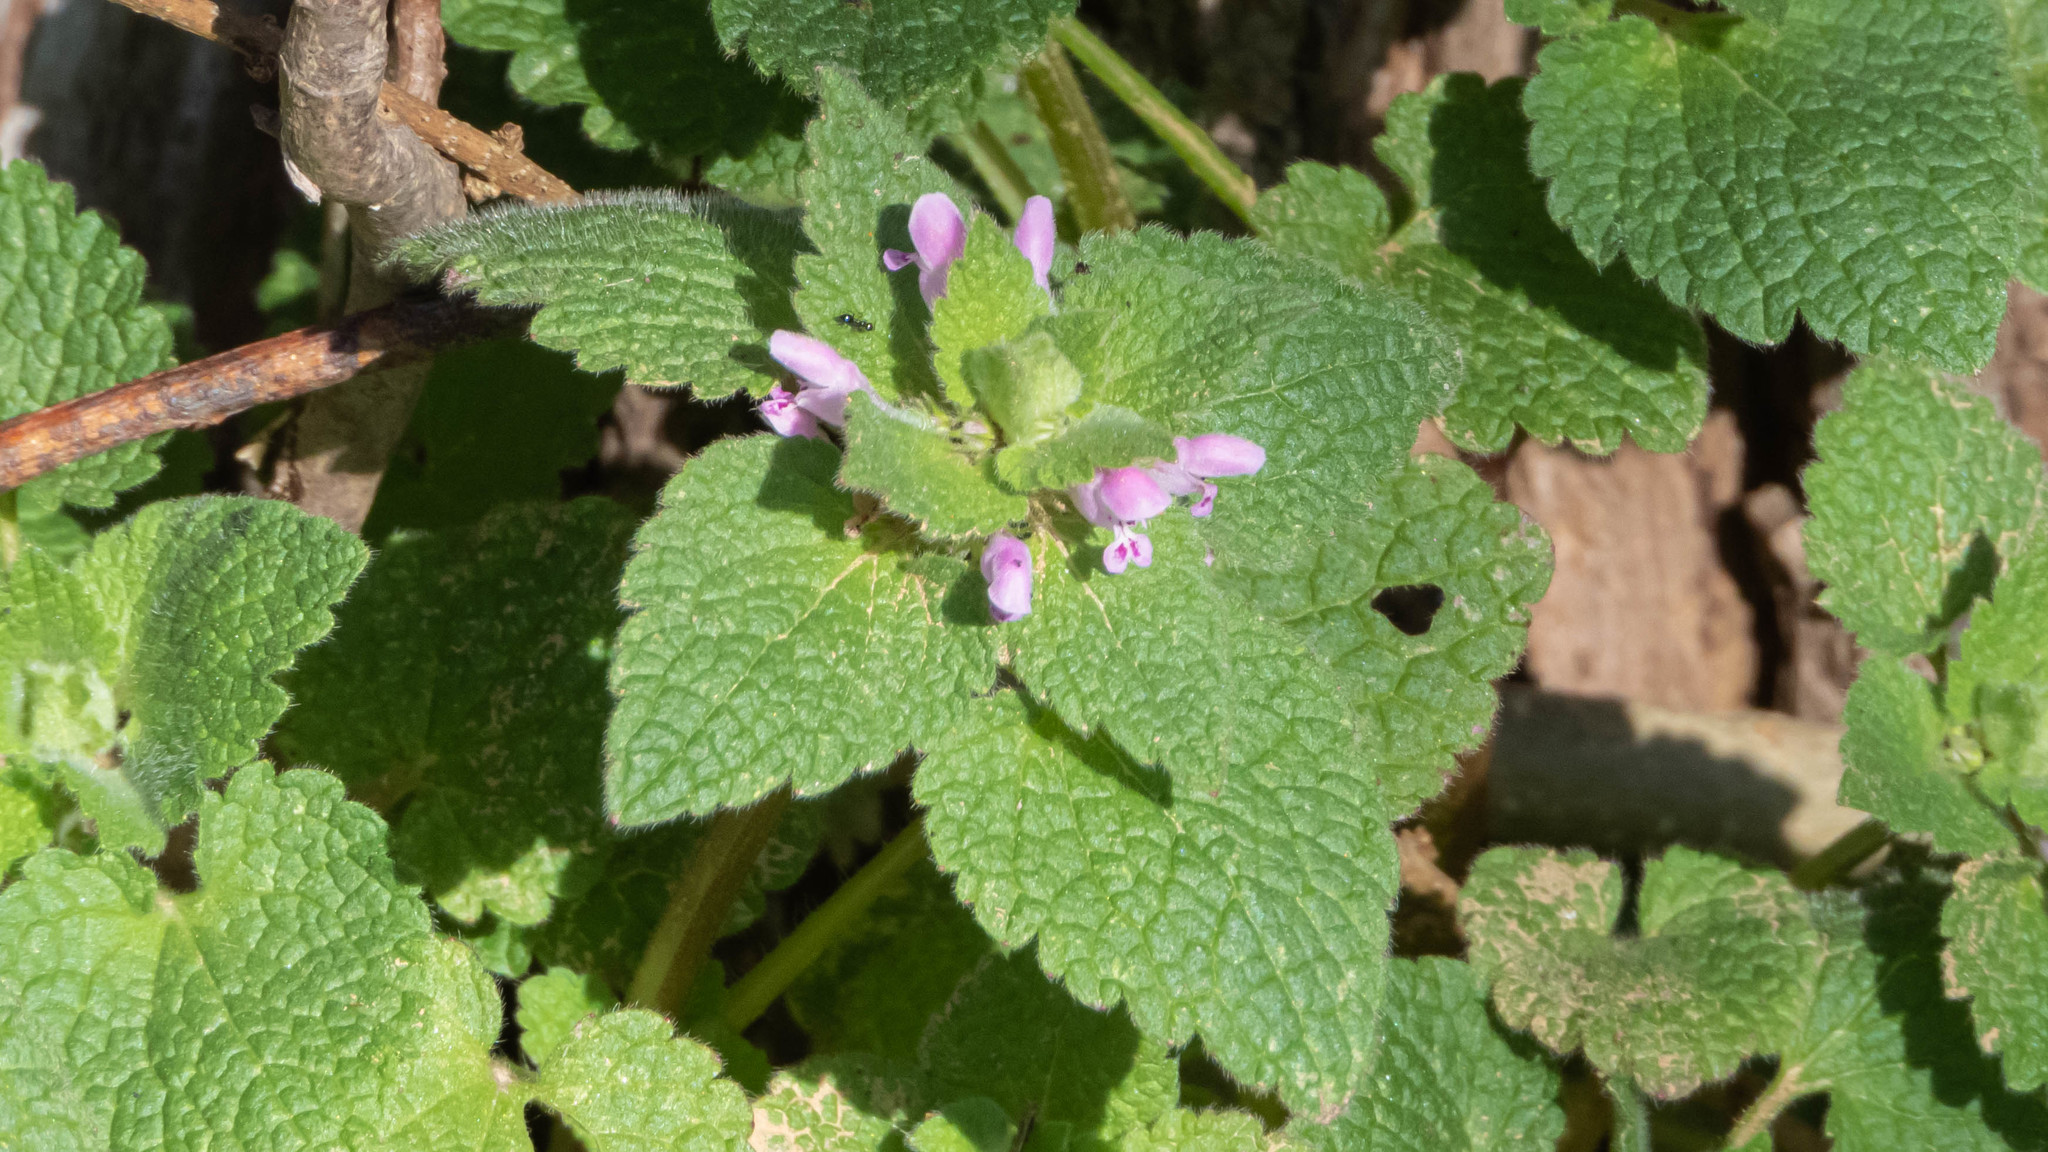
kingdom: Plantae
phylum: Tracheophyta
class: Magnoliopsida
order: Lamiales
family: Lamiaceae
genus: Lamium
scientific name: Lamium purpureum
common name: Red dead-nettle
